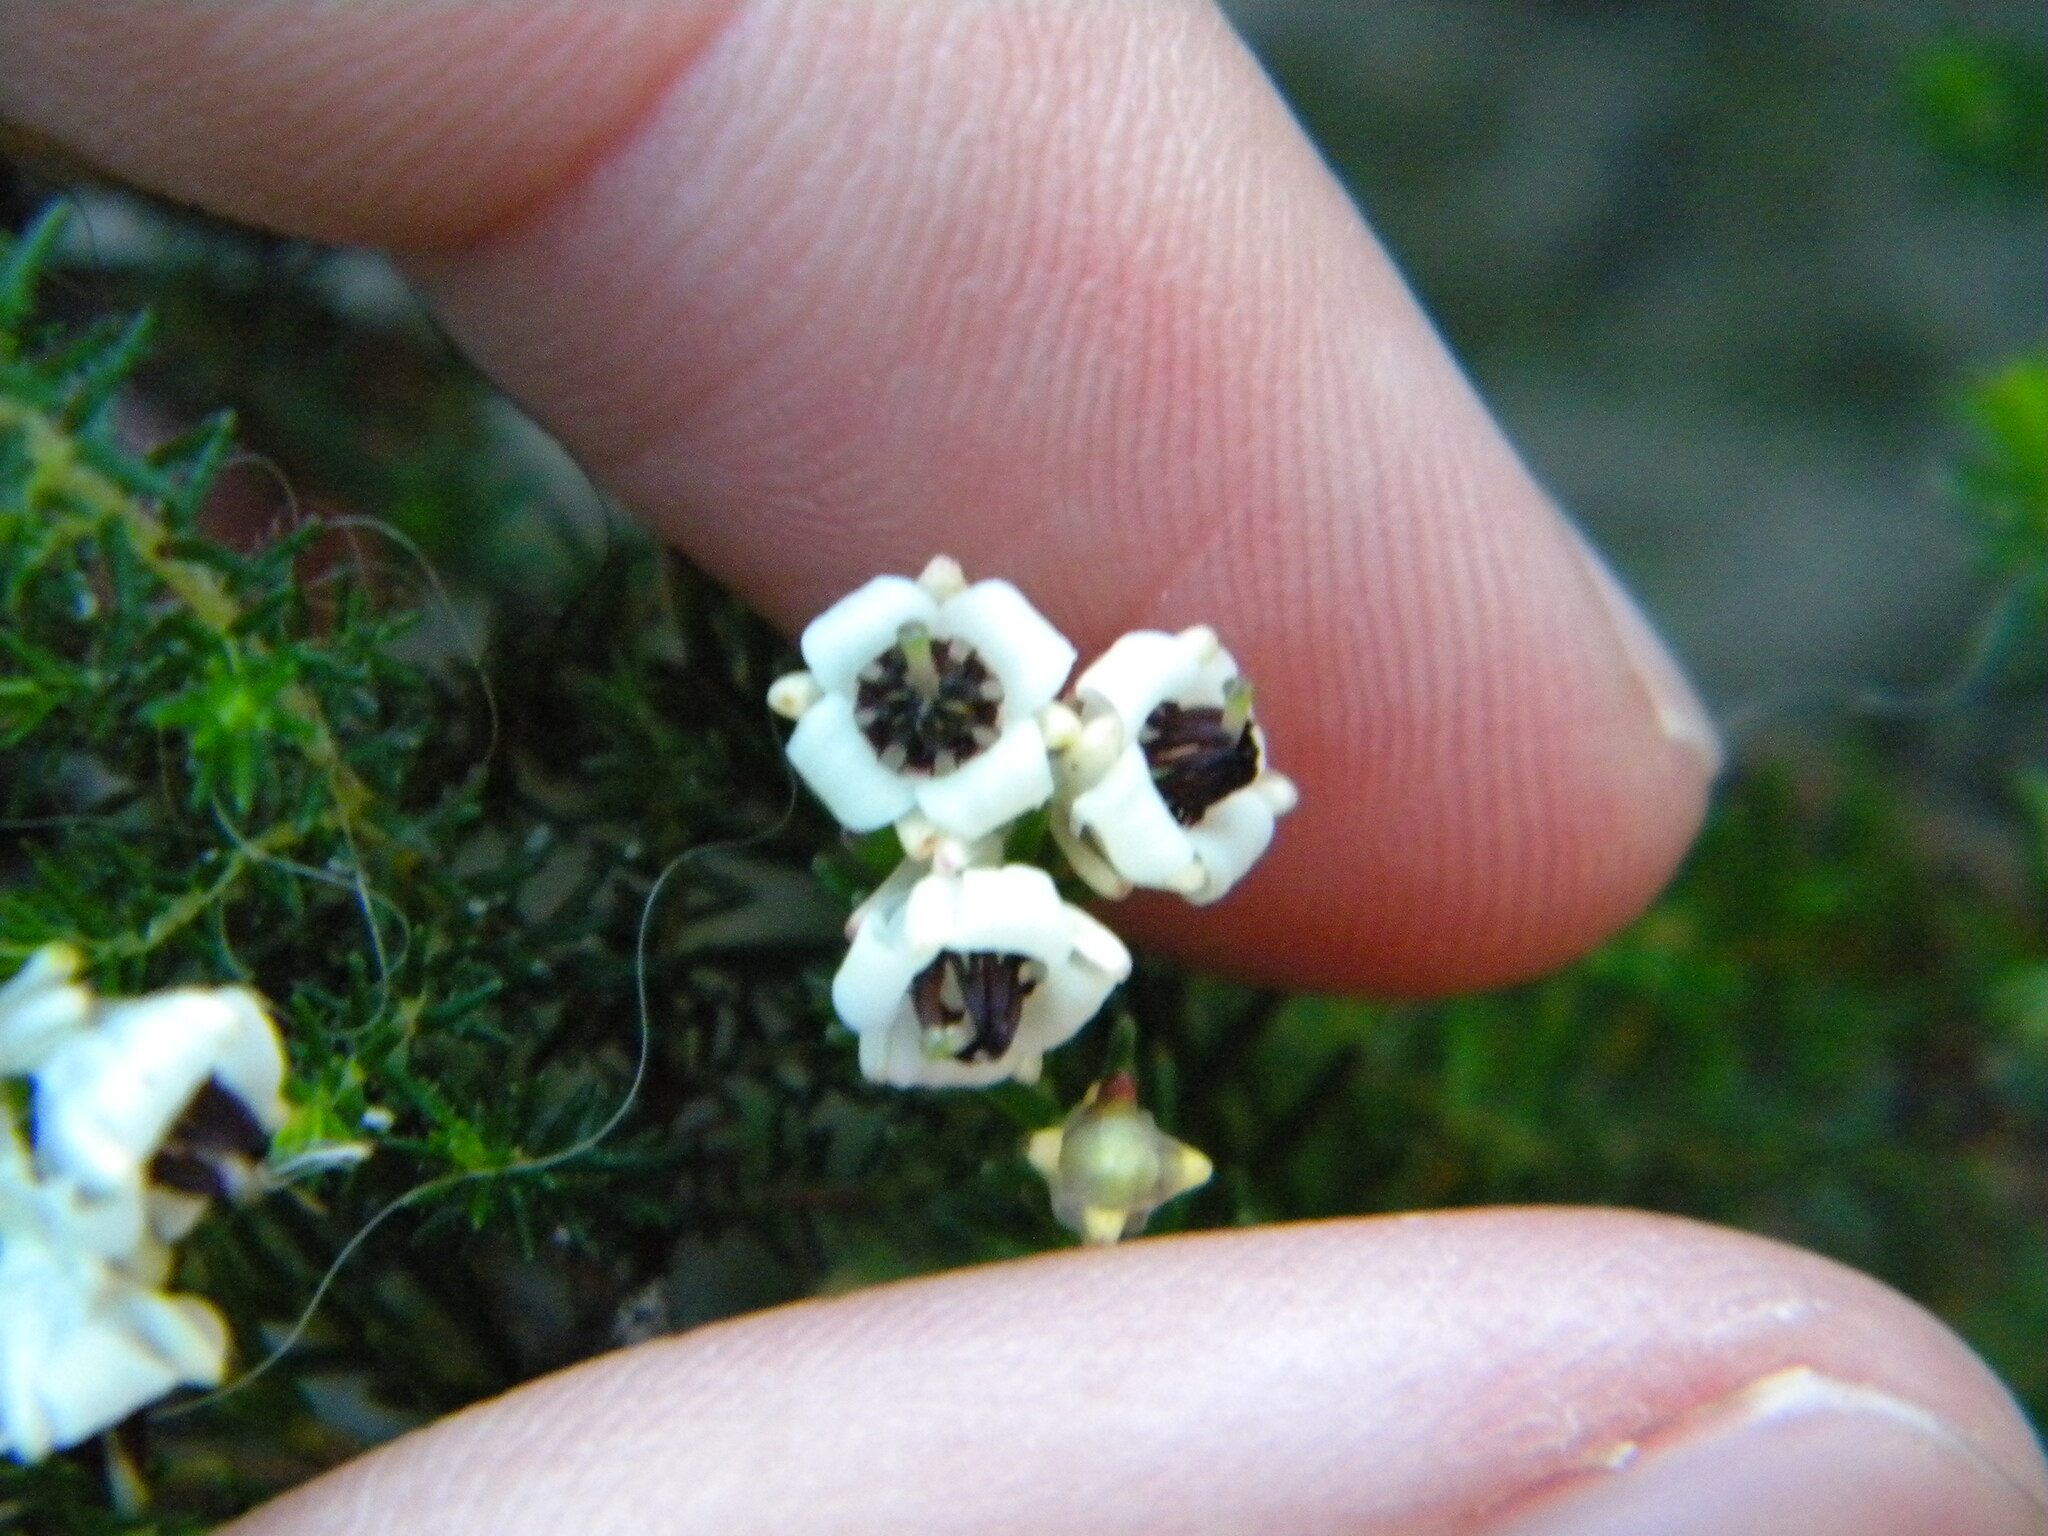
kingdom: Plantae
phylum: Tracheophyta
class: Magnoliopsida
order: Ericales
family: Ericaceae
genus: Erica
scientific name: Erica calycina
